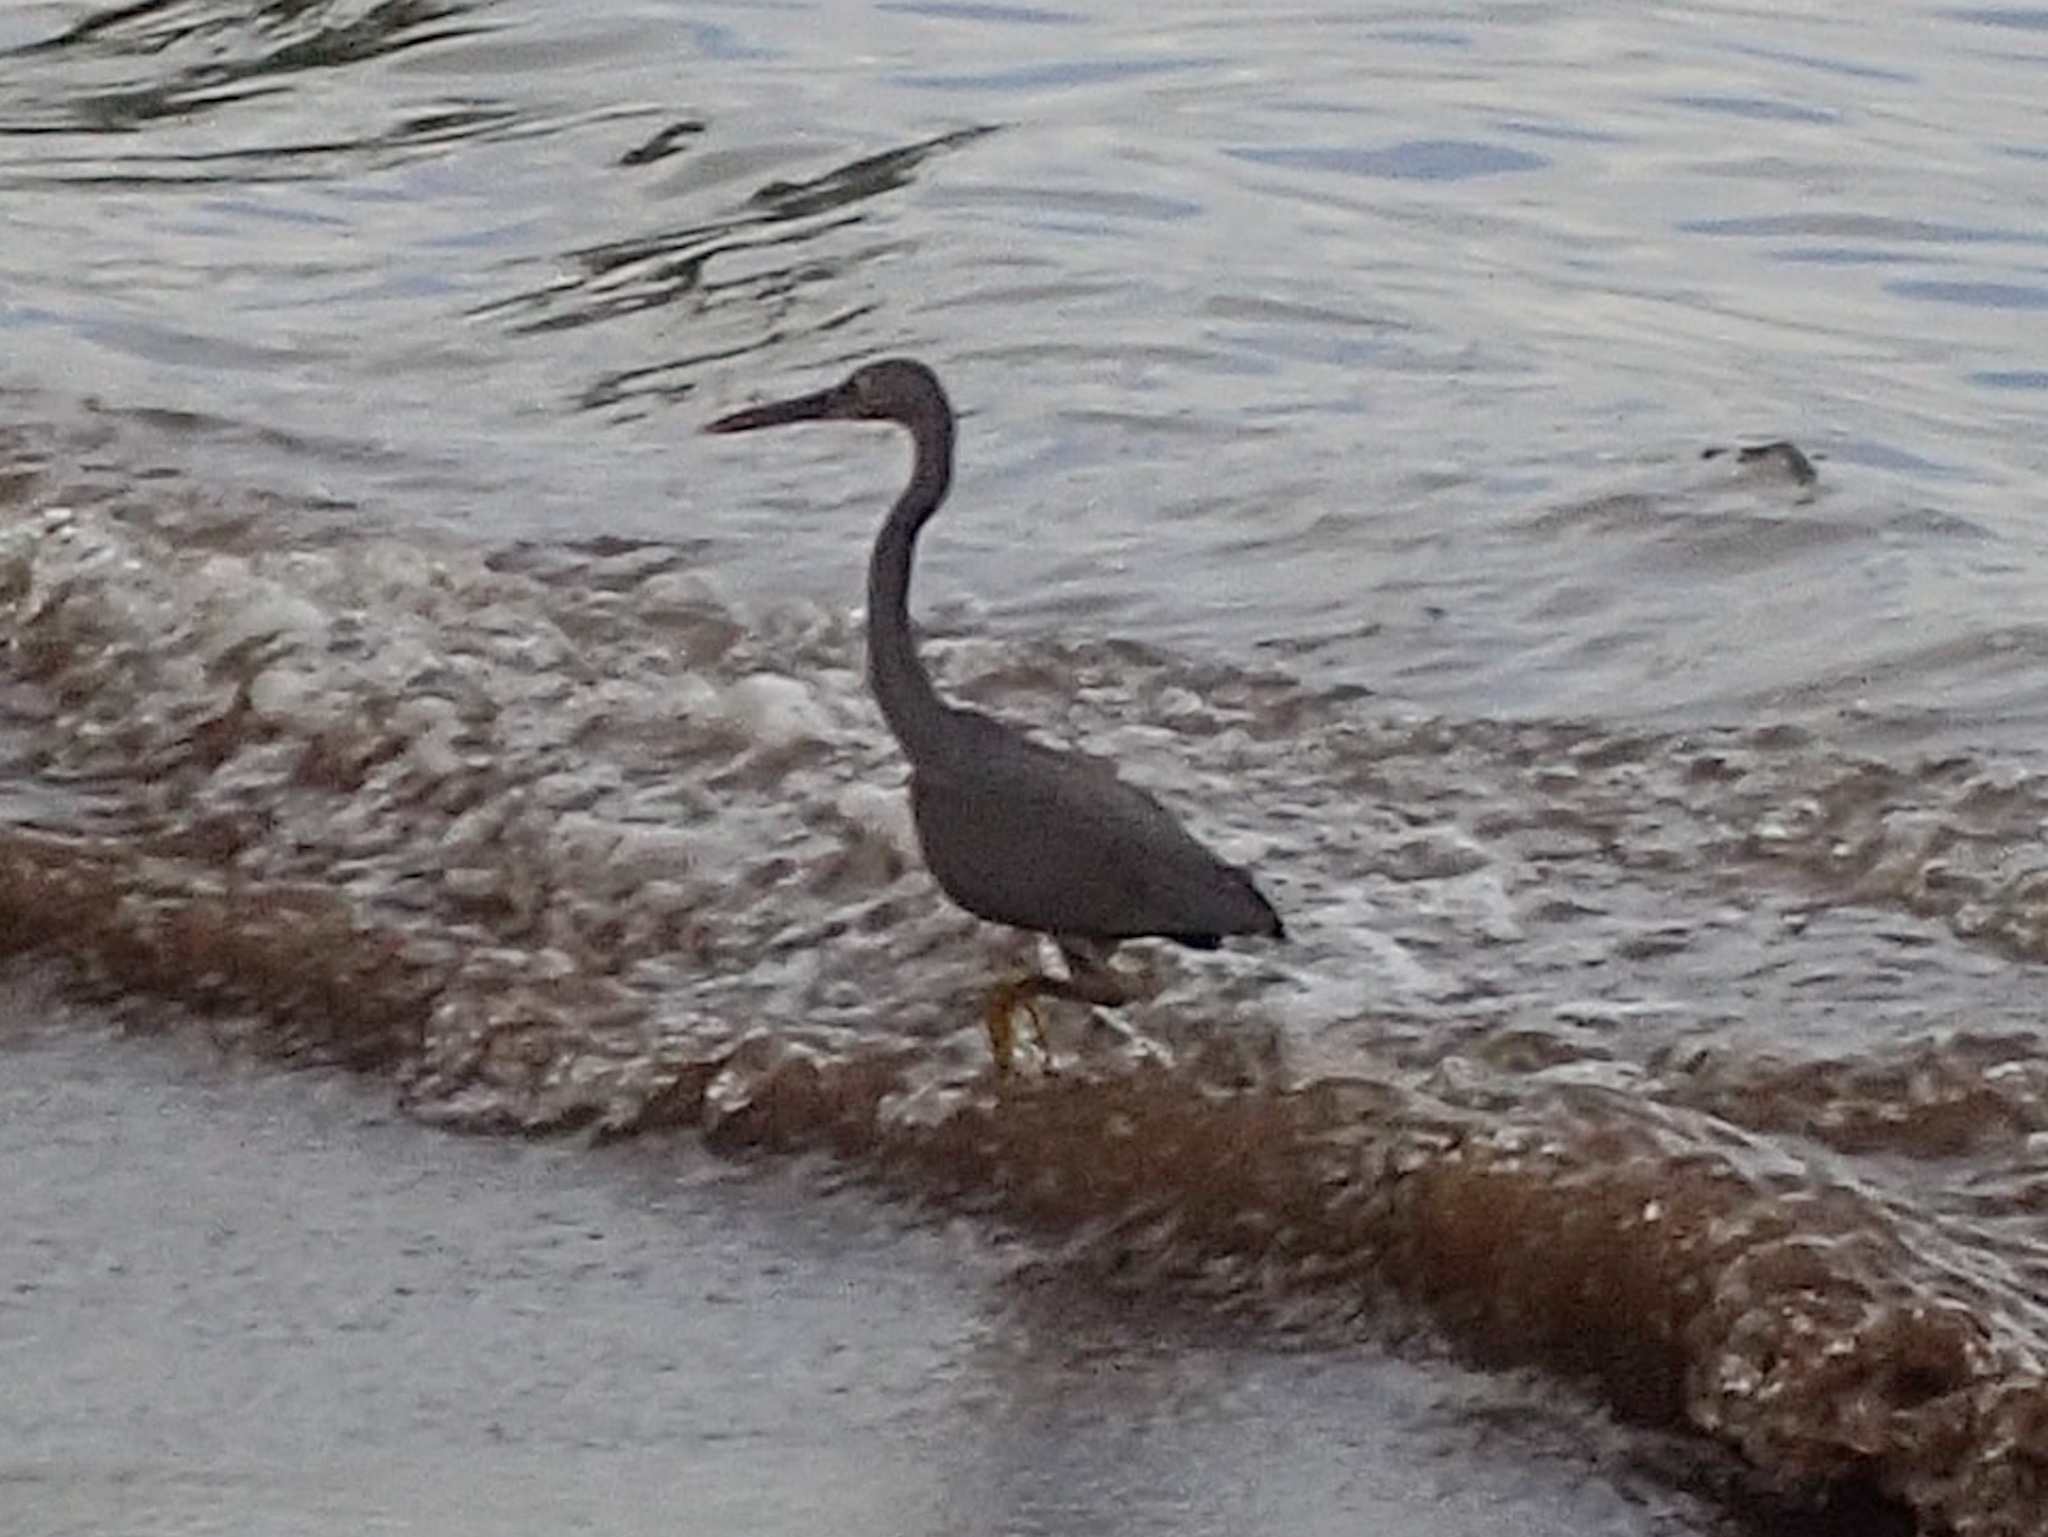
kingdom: Animalia
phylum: Chordata
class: Aves
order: Pelecaniformes
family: Ardeidae
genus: Egretta
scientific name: Egretta sacra
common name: Pacific reef heron
